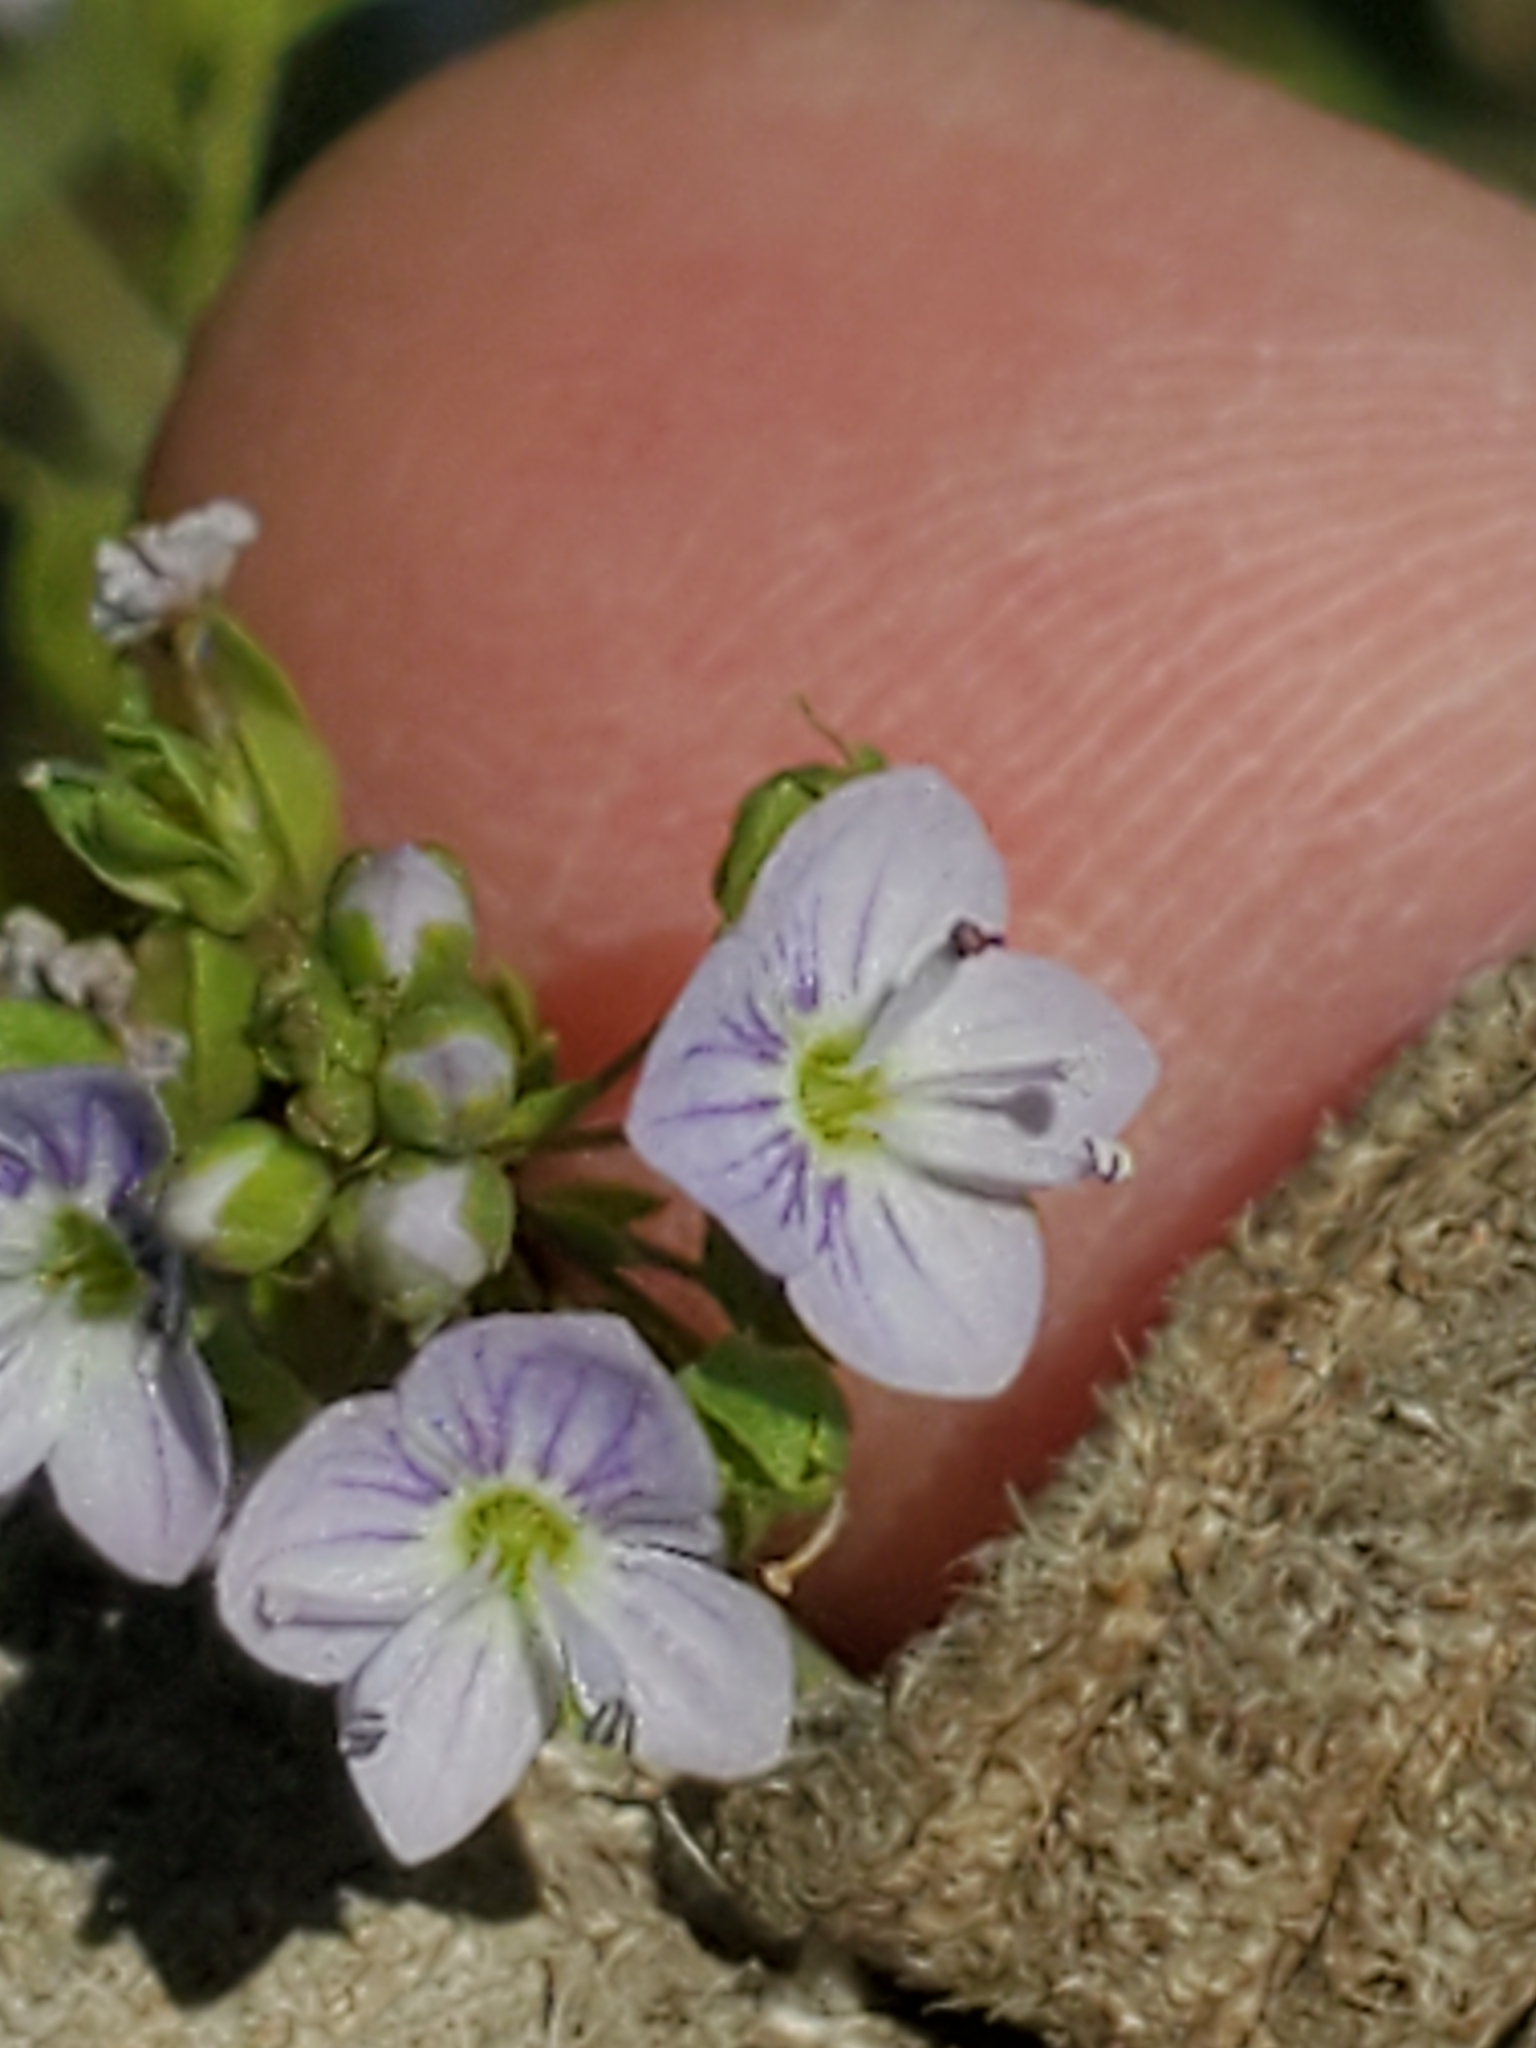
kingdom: Plantae
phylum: Tracheophyta
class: Magnoliopsida
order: Lamiales
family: Plantaginaceae
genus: Veronica
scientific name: Veronica anagallis-aquatica
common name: Water speedwell
